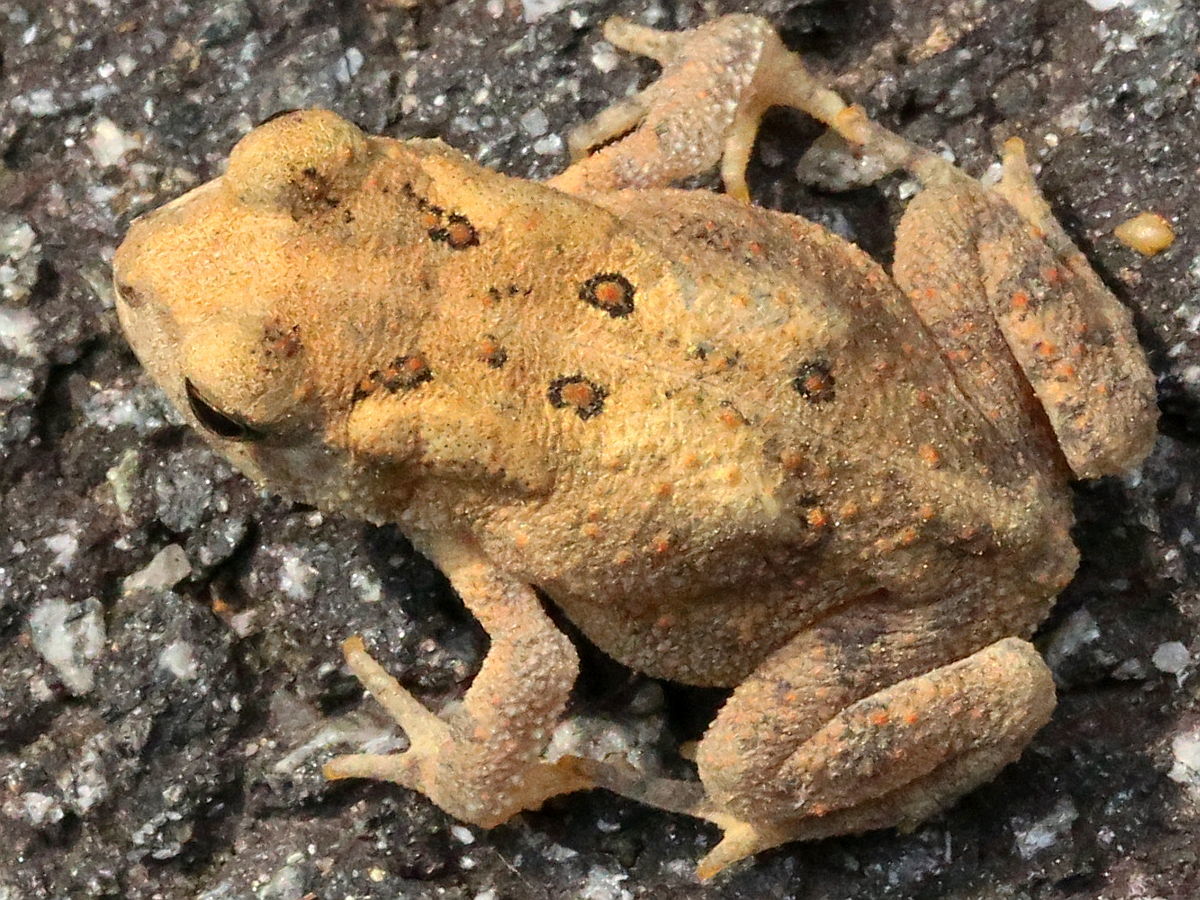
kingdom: Animalia
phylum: Chordata
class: Amphibia
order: Anura
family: Bufonidae
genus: Anaxyrus
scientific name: Anaxyrus americanus
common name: American toad
